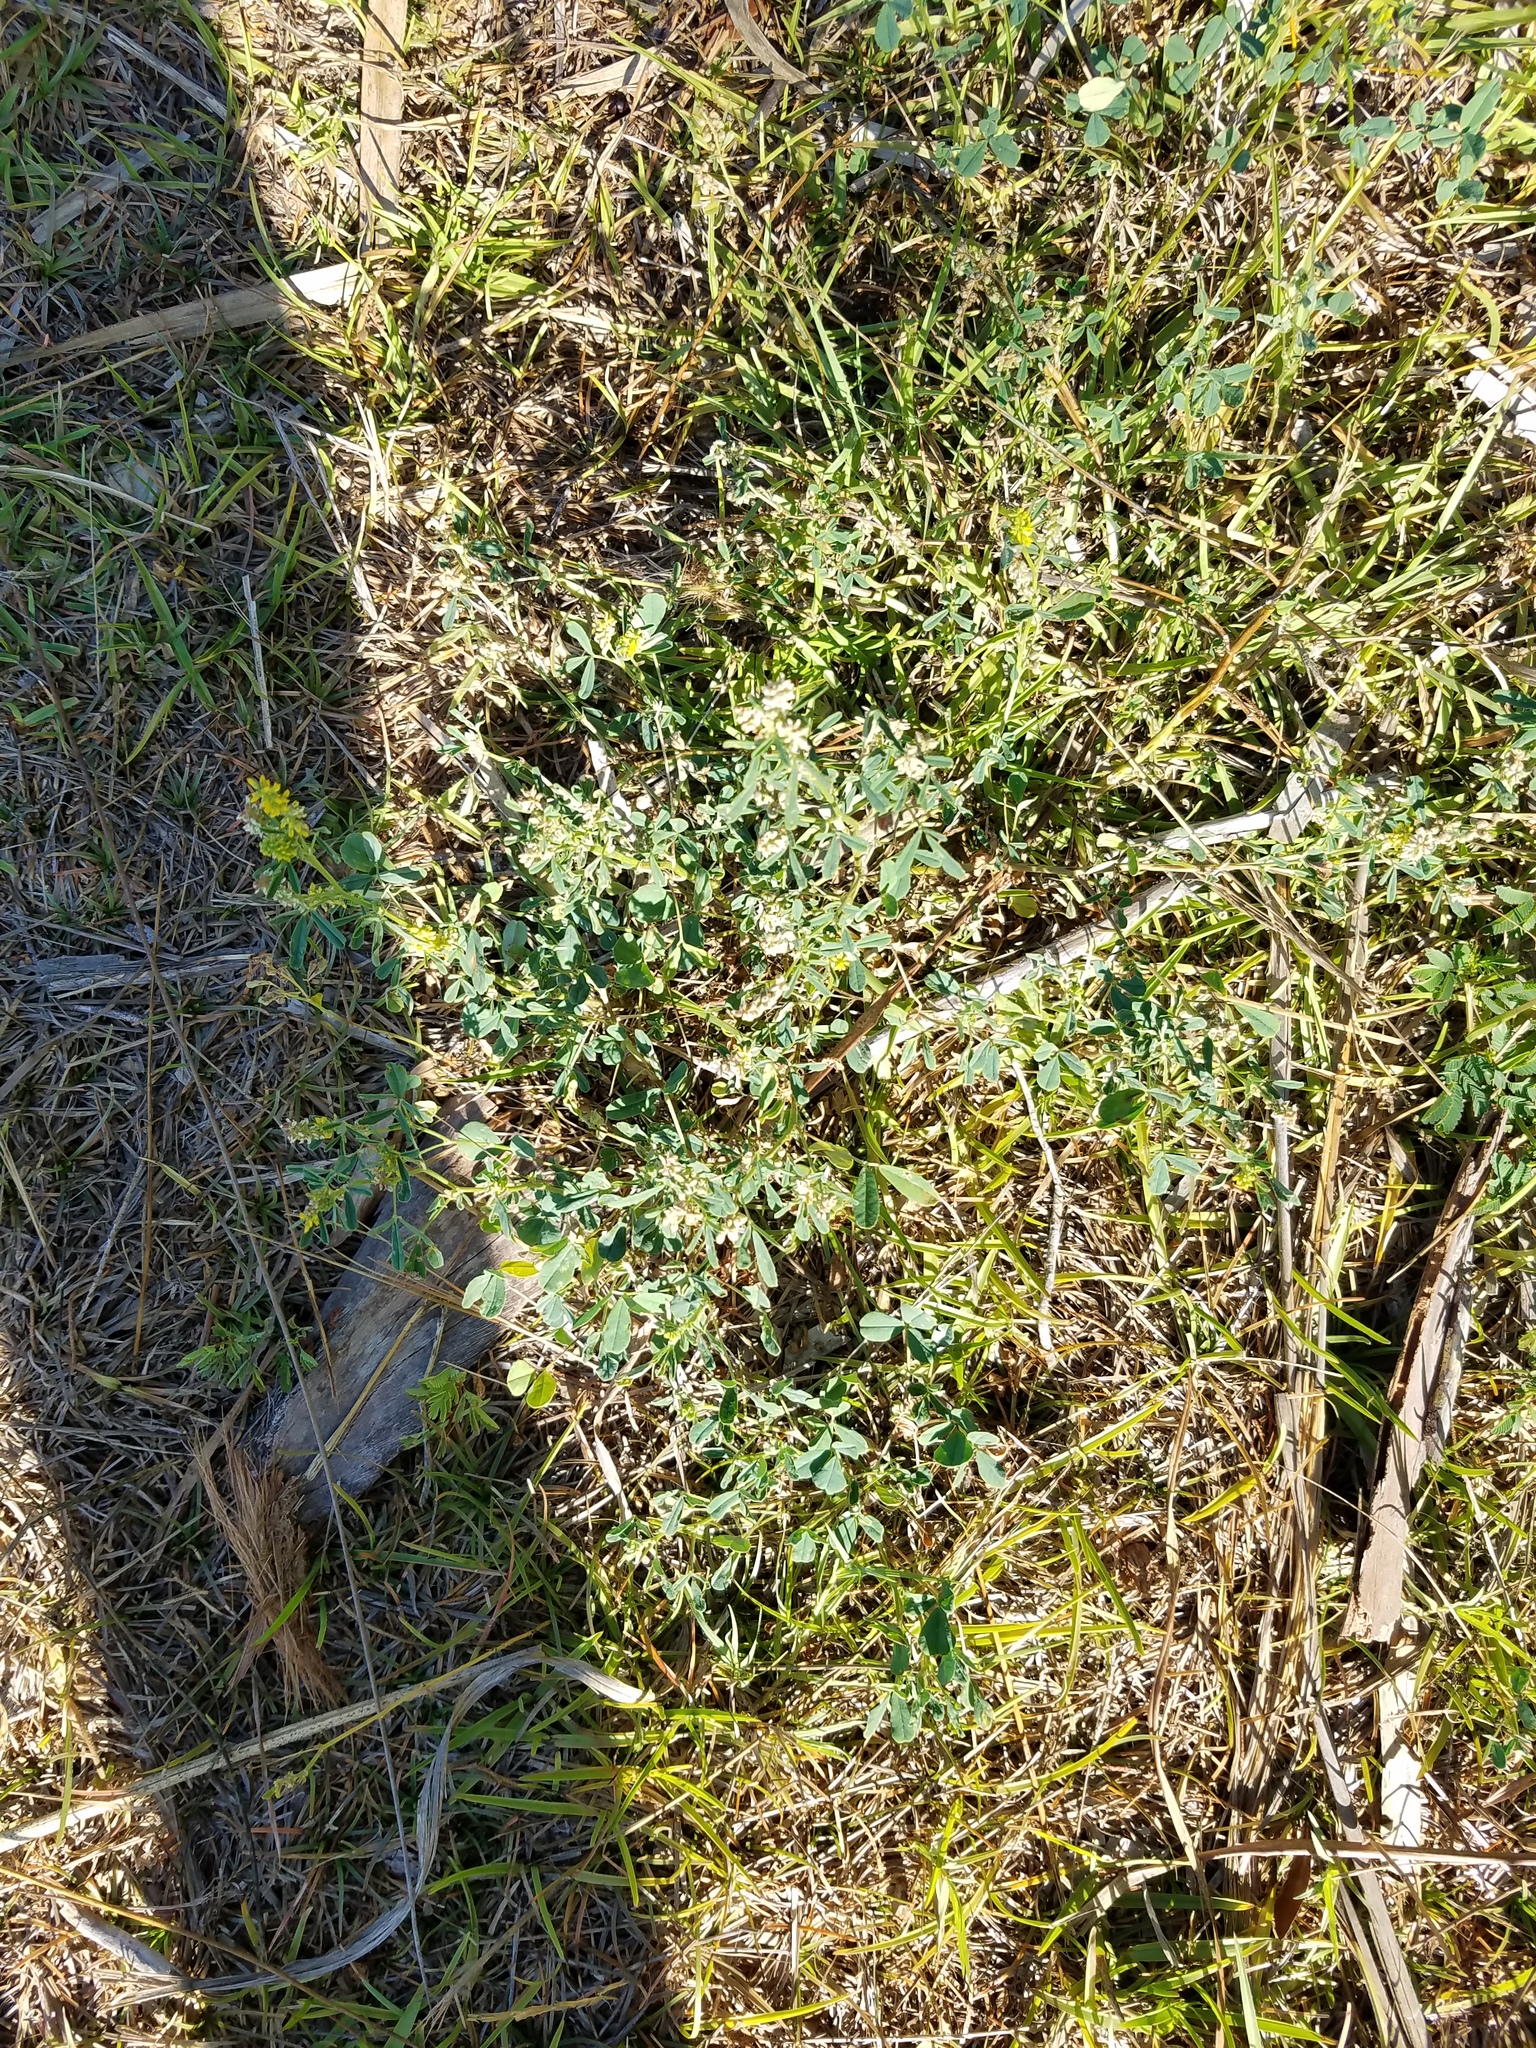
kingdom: Plantae
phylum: Tracheophyta
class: Magnoliopsida
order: Fabales
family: Fabaceae
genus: Melilotus
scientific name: Melilotus indicus
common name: Small melilot
